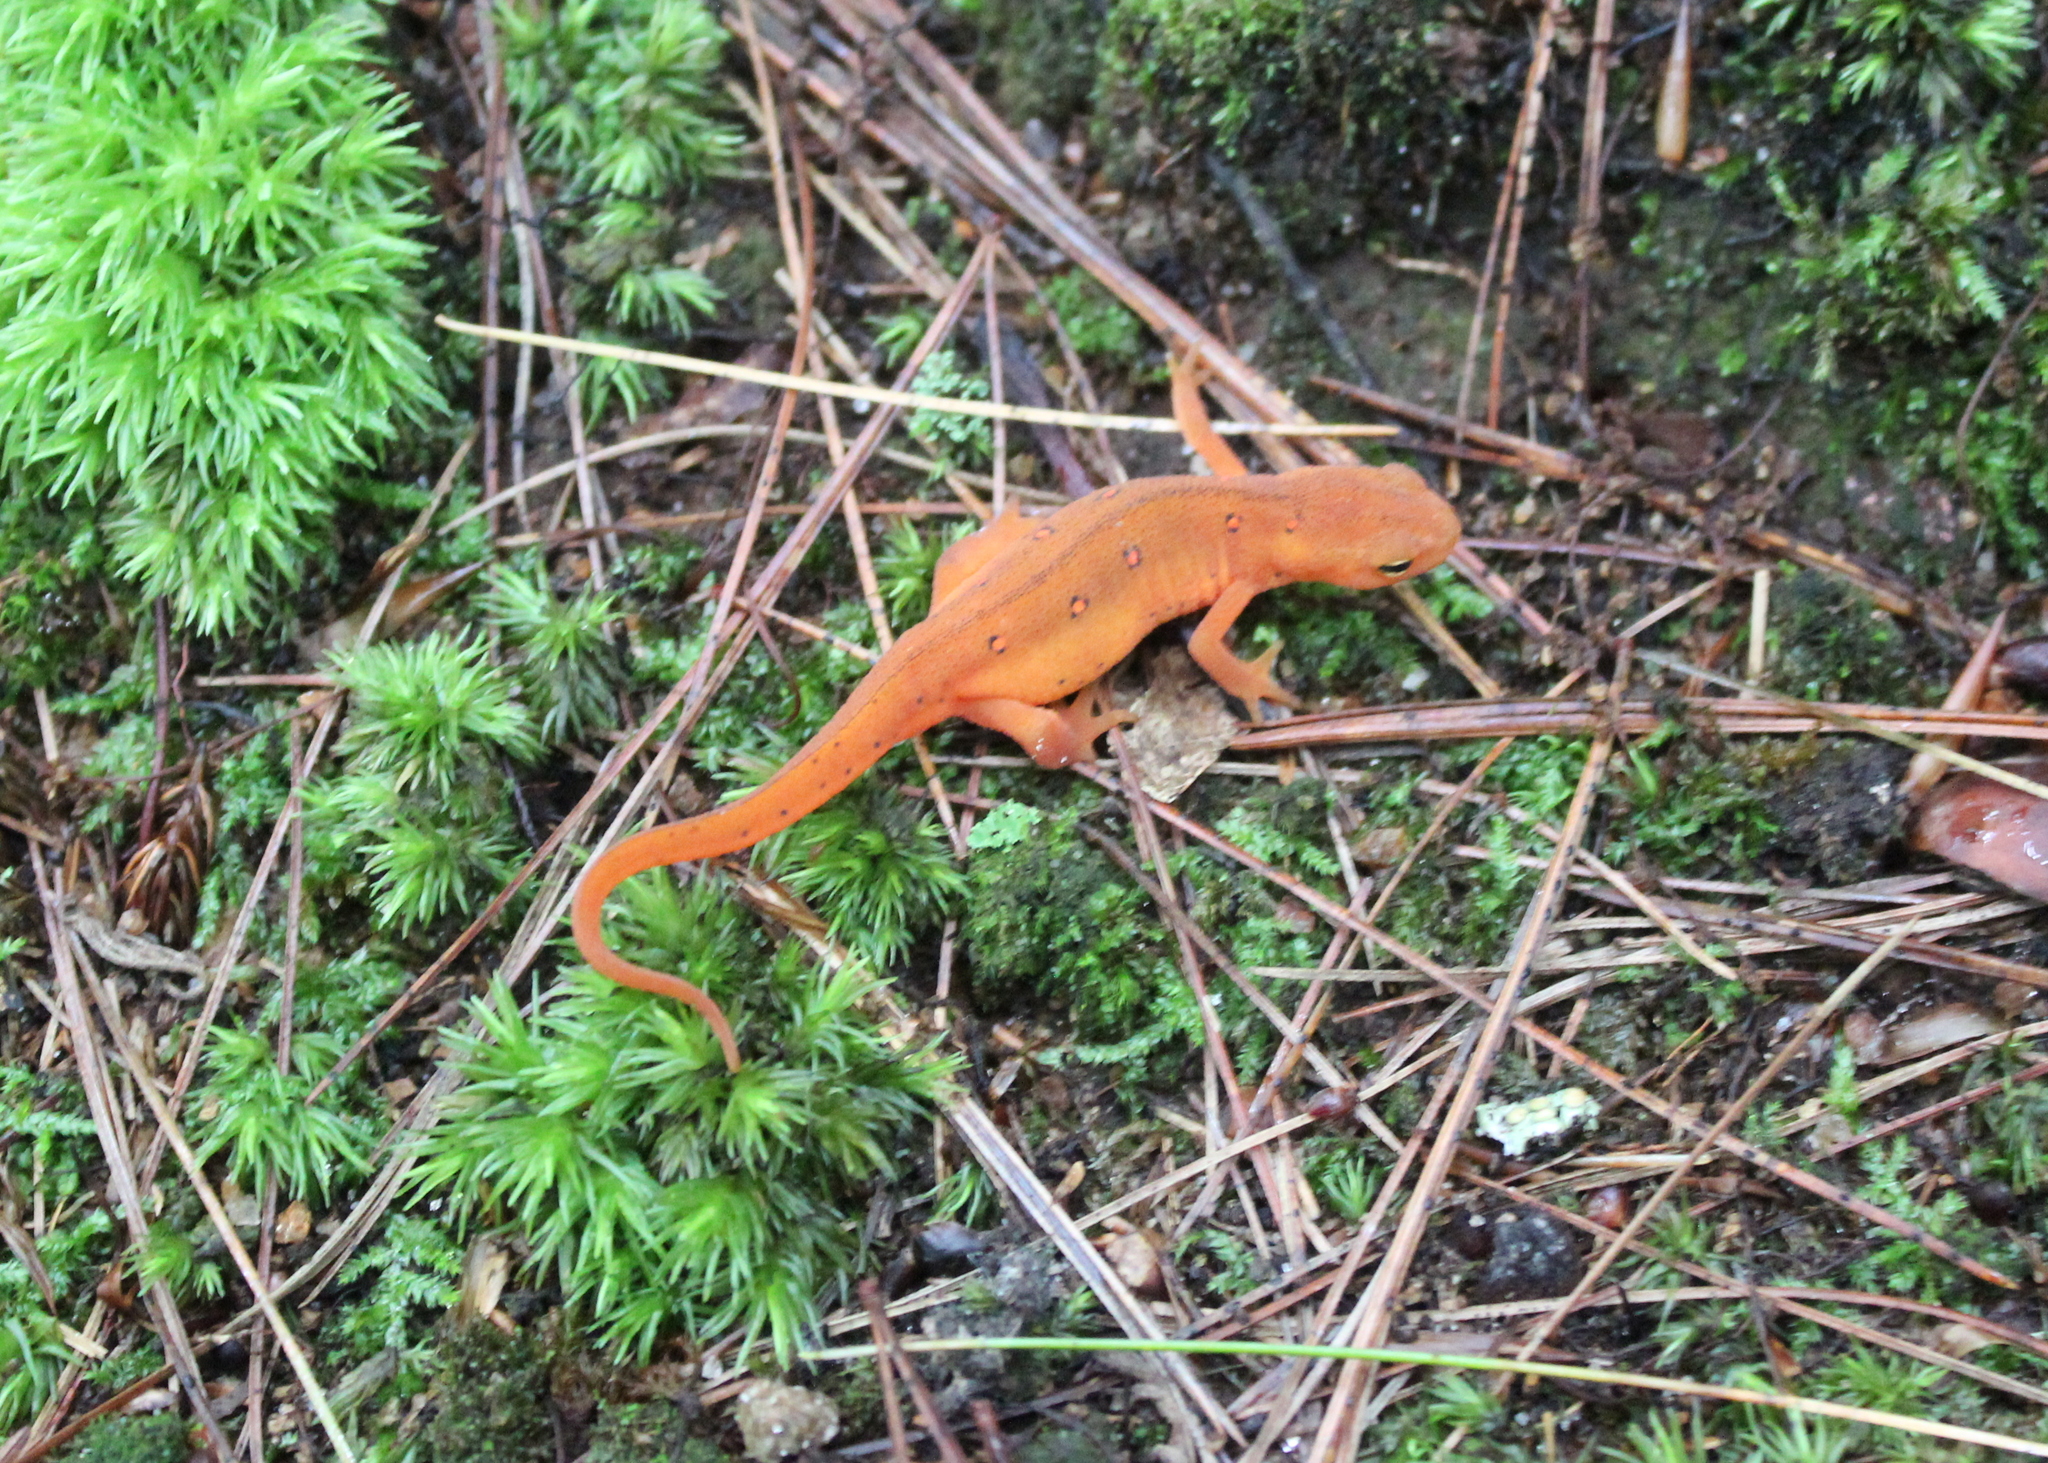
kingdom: Animalia
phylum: Chordata
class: Amphibia
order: Caudata
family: Salamandridae
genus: Notophthalmus
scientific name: Notophthalmus viridescens
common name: Eastern newt
